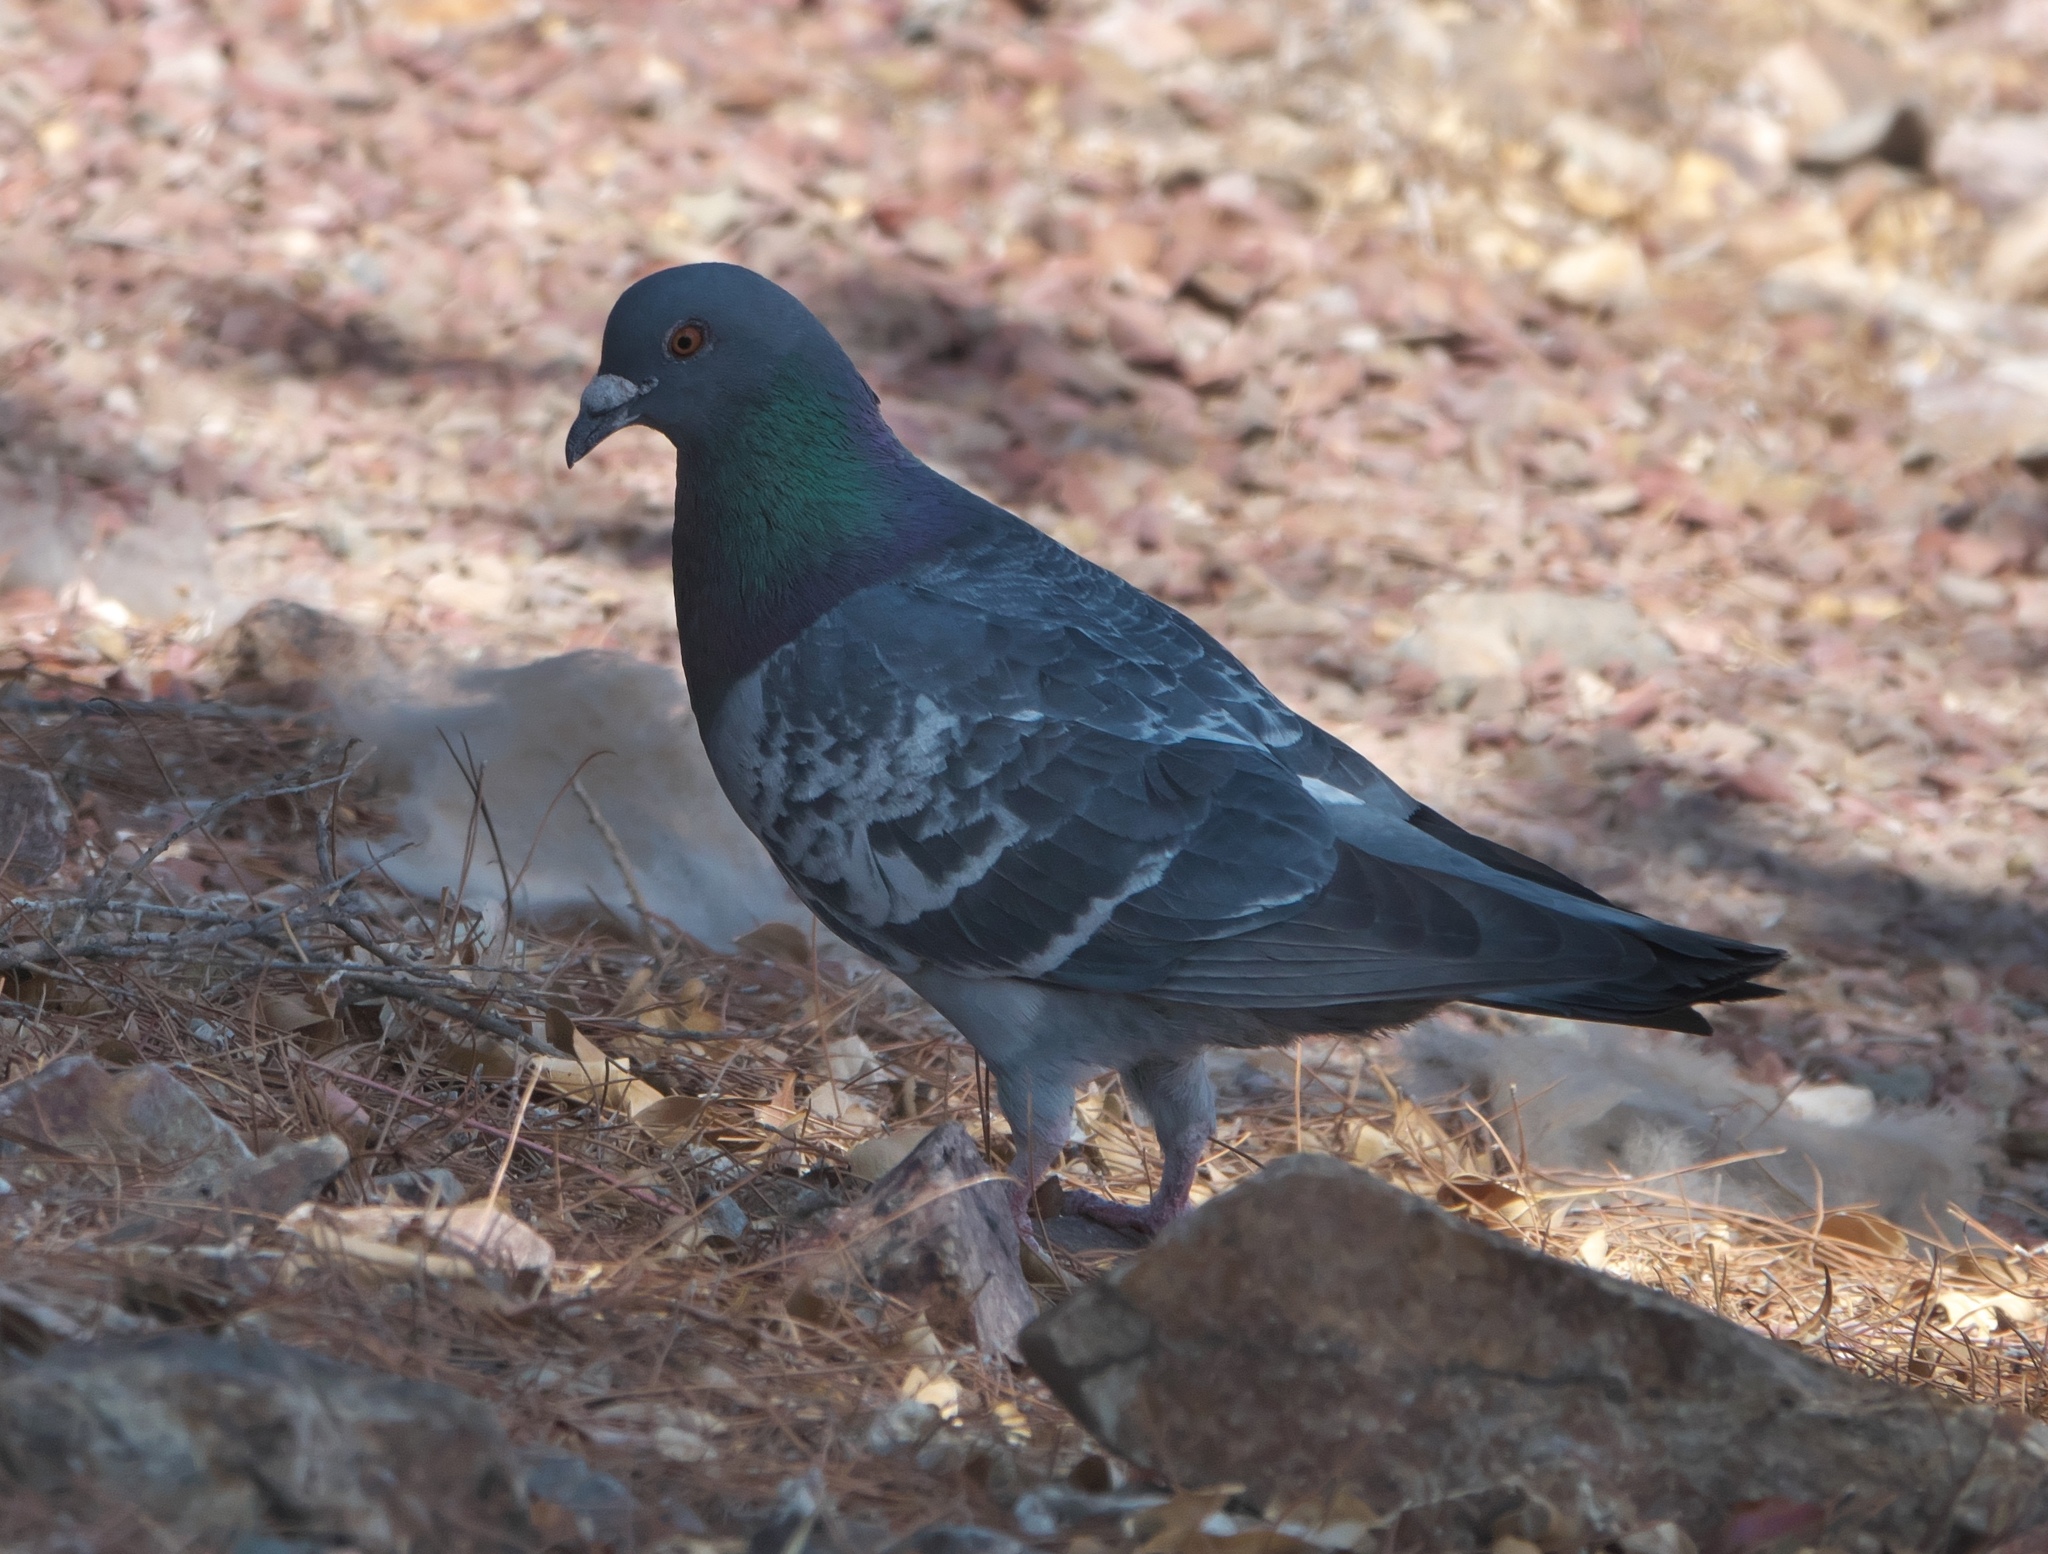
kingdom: Animalia
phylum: Chordata
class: Aves
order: Columbiformes
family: Columbidae
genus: Columba
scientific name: Columba livia
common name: Rock pigeon
